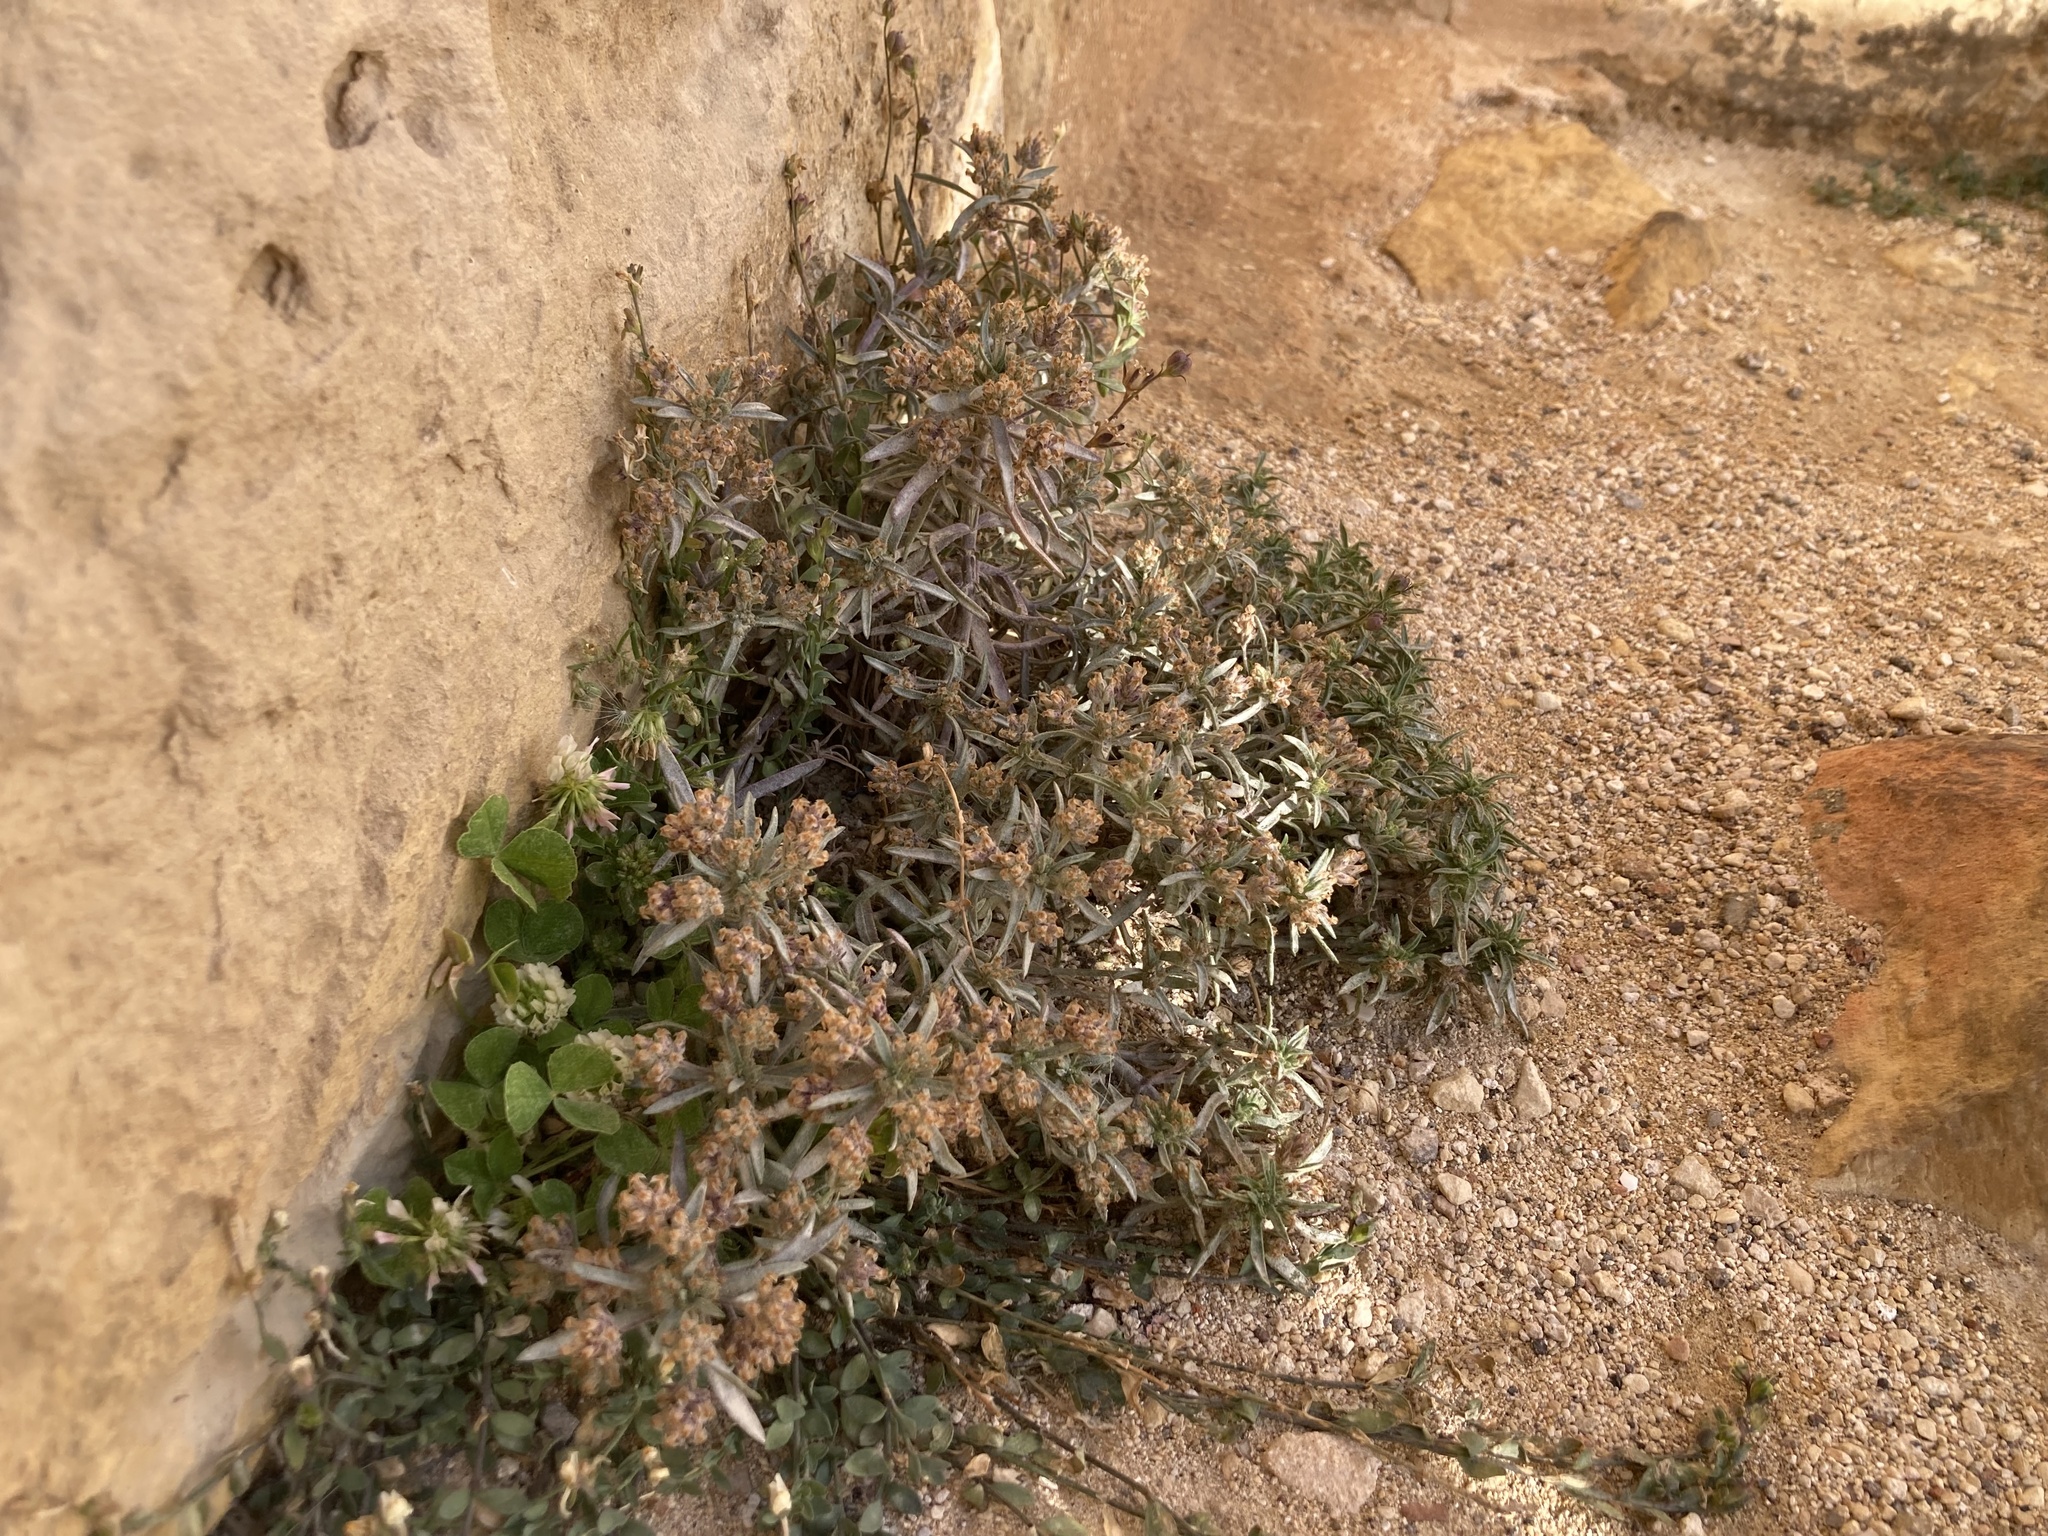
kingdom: Plantae
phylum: Tracheophyta
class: Magnoliopsida
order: Lamiales
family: Plantaginaceae
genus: Plantago
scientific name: Plantago afra
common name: Glandular plantain
